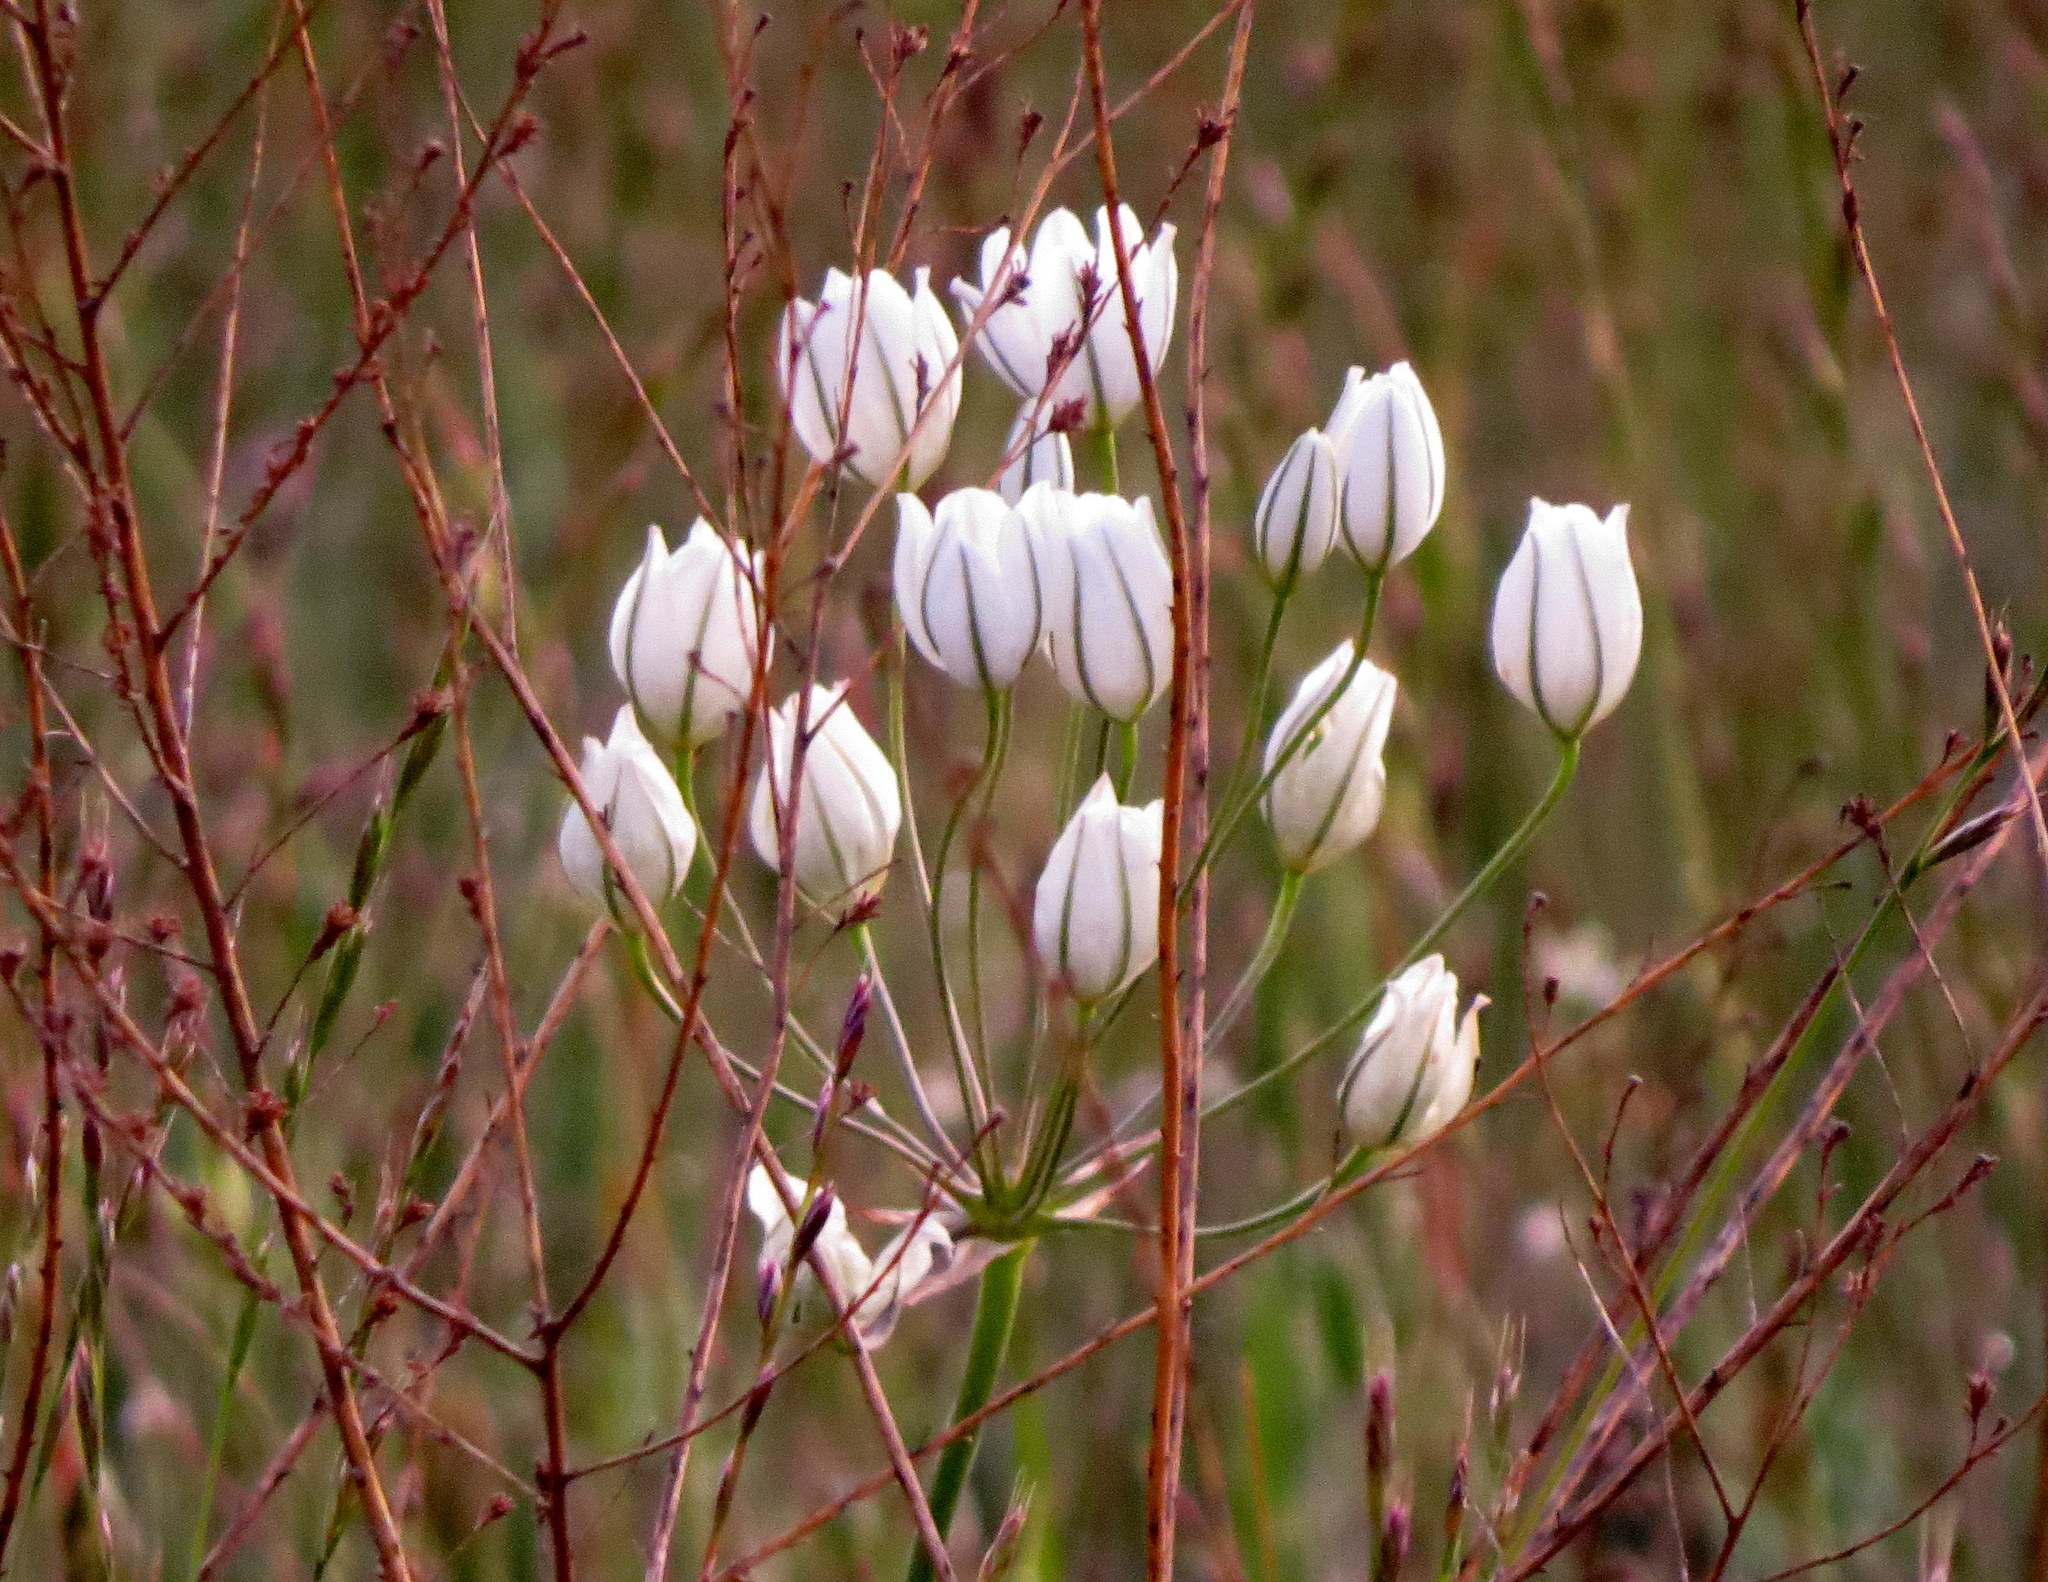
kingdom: Plantae
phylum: Tracheophyta
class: Liliopsida
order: Asparagales
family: Asparagaceae
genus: Triteleia
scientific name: Triteleia hyacinthina
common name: White brodiaea
